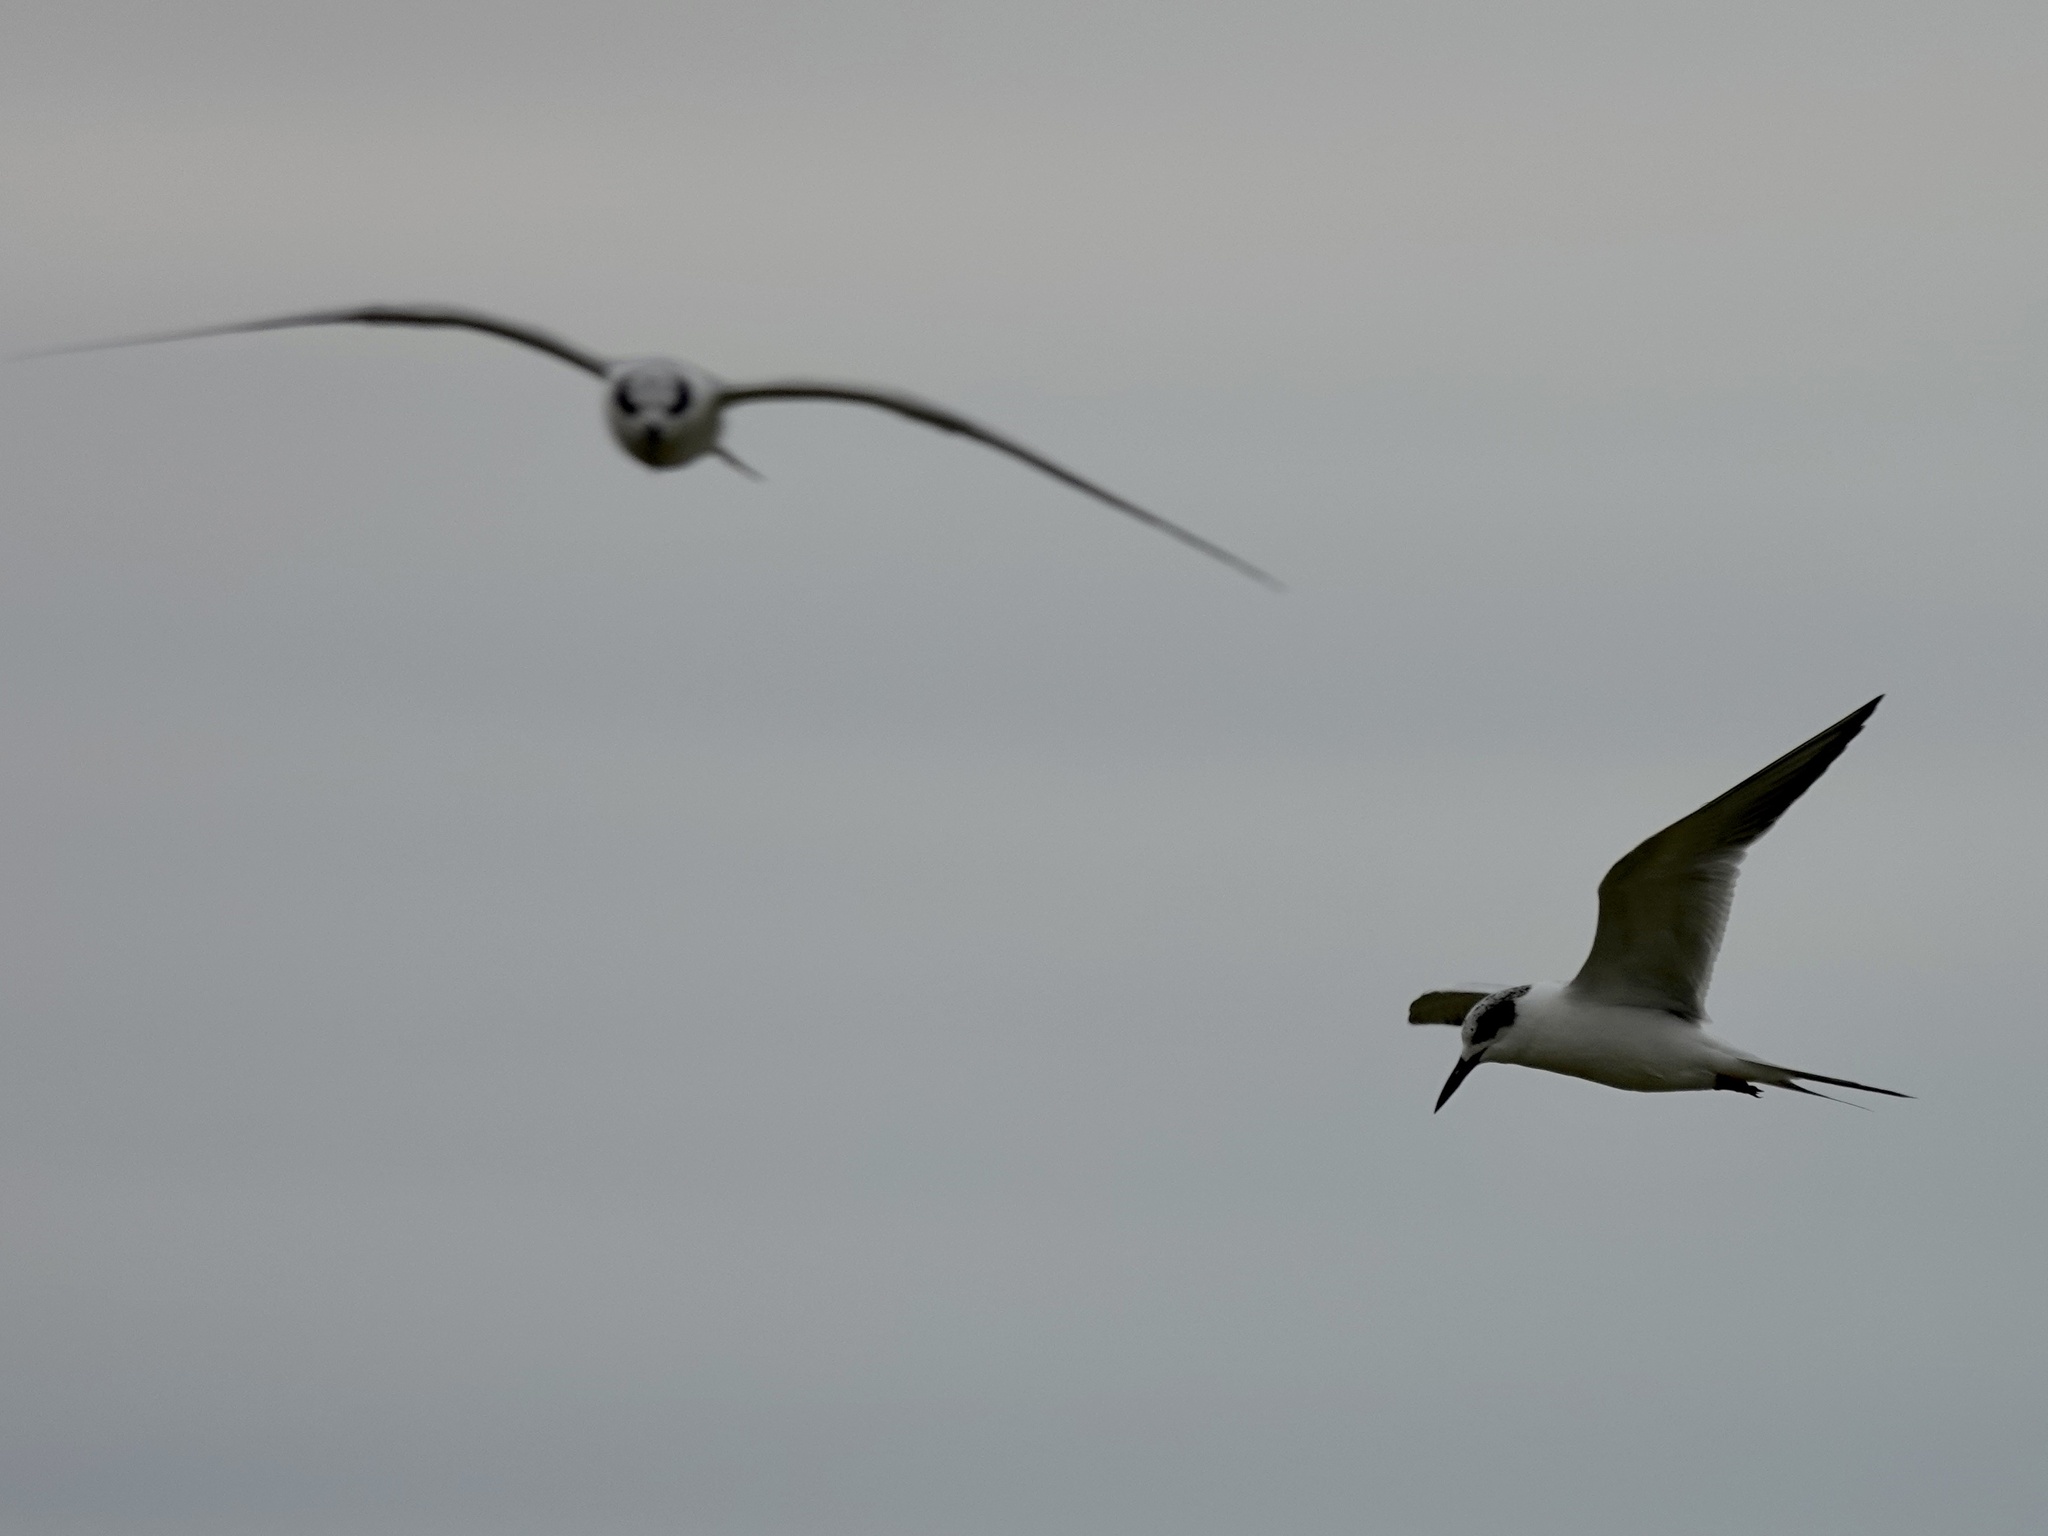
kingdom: Animalia
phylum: Chordata
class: Aves
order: Charadriiformes
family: Laridae
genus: Sterna
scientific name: Sterna forsteri
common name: Forster's tern
